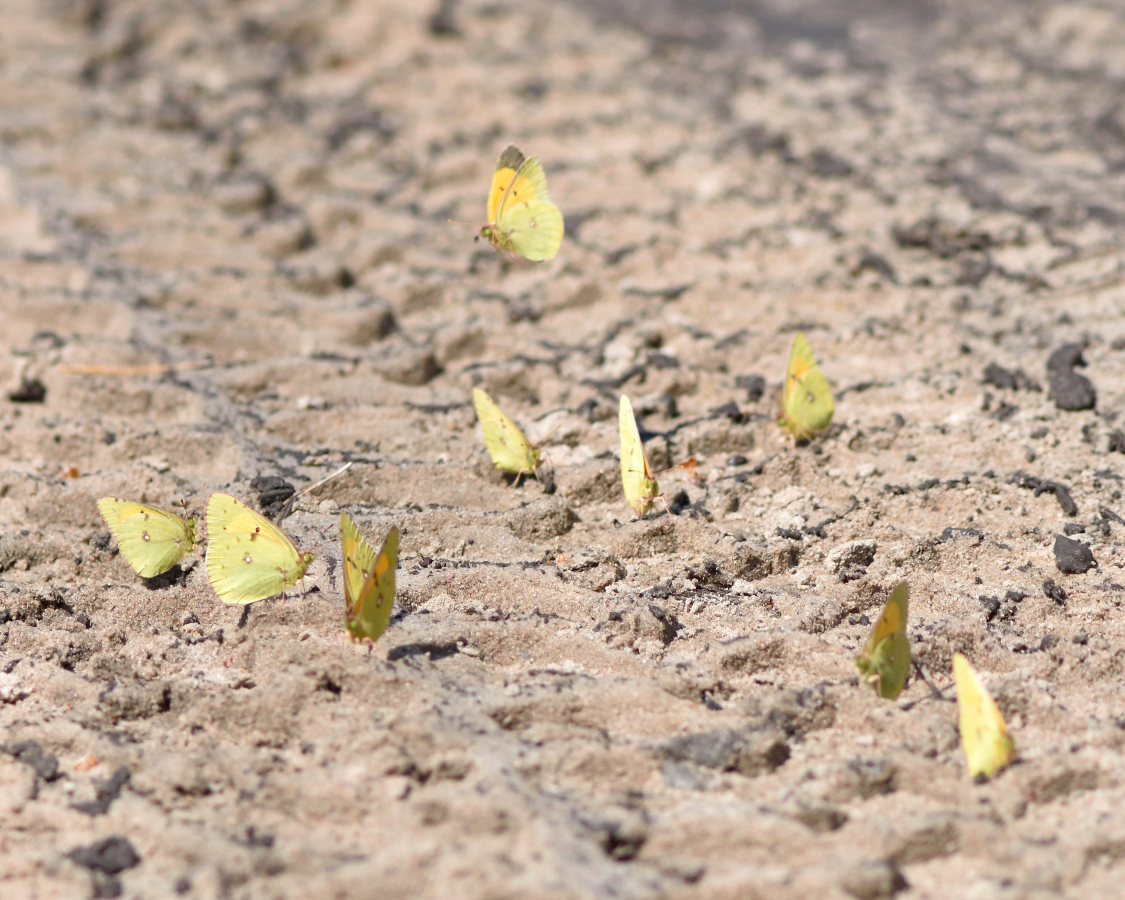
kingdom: Animalia
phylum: Arthropoda
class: Insecta
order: Lepidoptera
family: Pieridae
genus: Colias
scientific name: Colias myrmidone
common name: Danube clouded yellow
